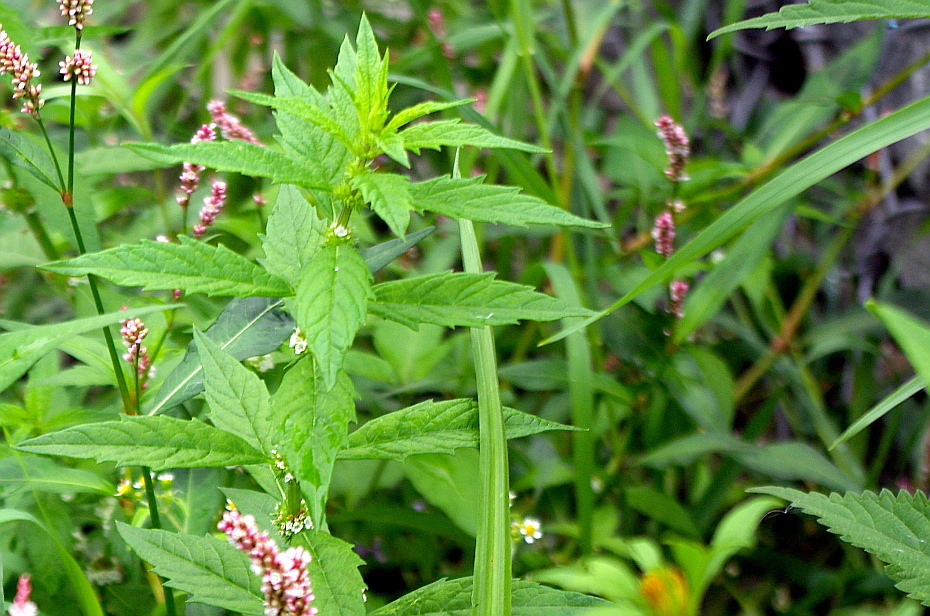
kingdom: Plantae
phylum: Tracheophyta
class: Magnoliopsida
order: Lamiales
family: Lamiaceae
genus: Lycopus
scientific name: Lycopus europaeus
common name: European bugleweed
